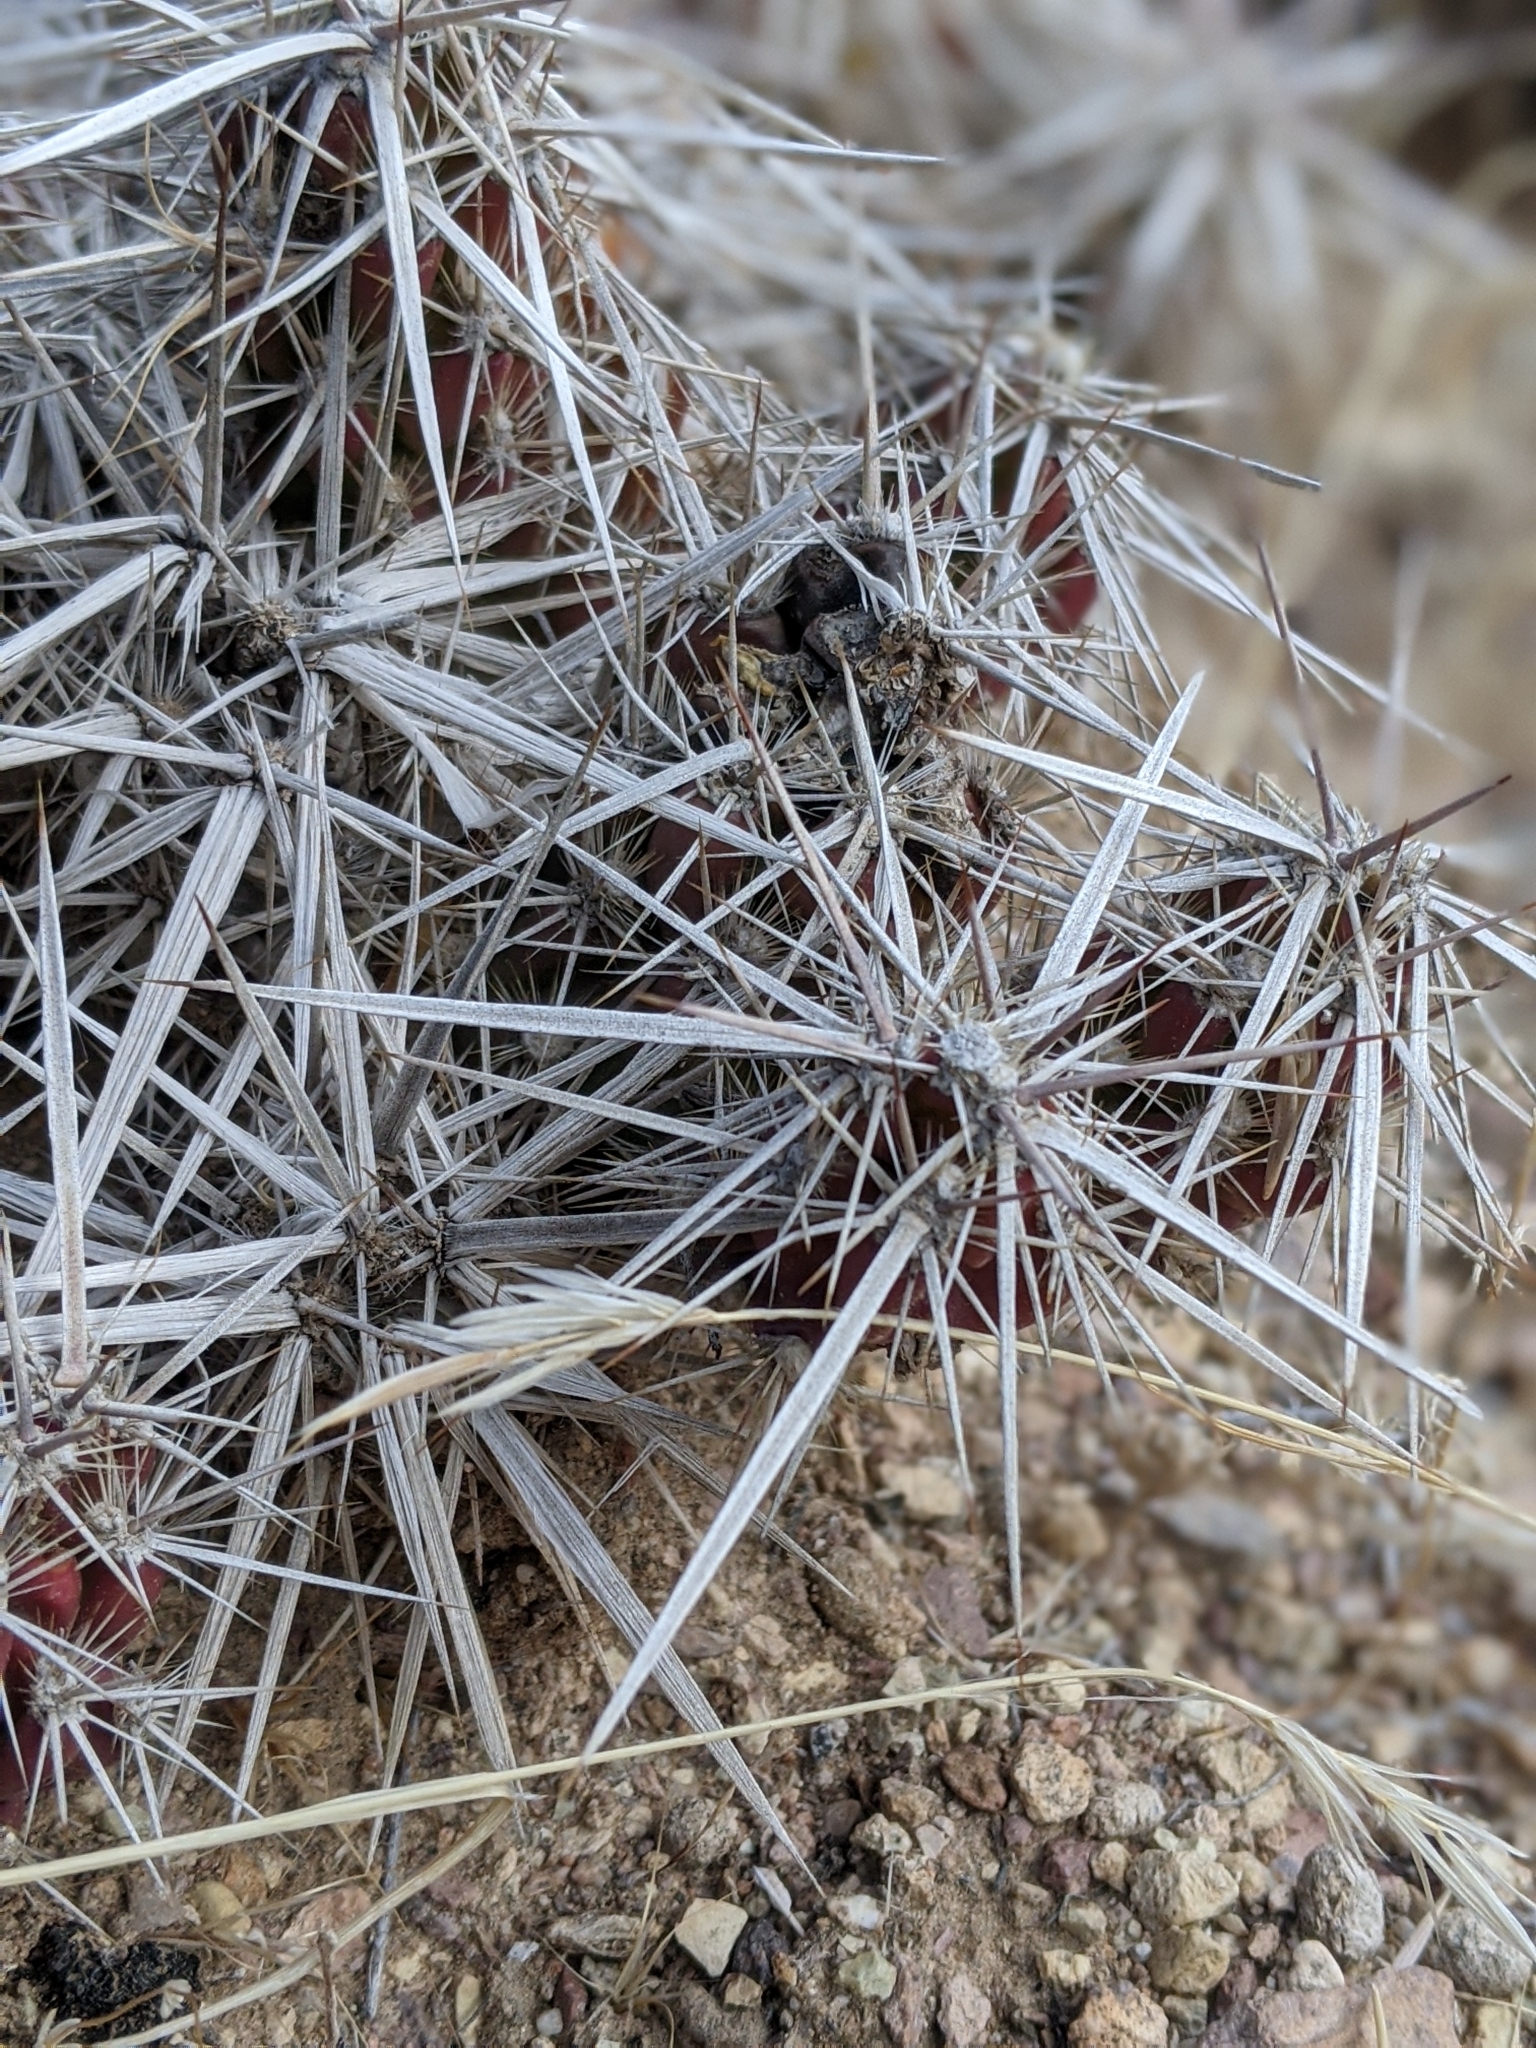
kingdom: Plantae
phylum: Tracheophyta
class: Magnoliopsida
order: Caryophyllales
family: Cactaceae
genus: Grusonia
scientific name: Grusonia parishiorum
